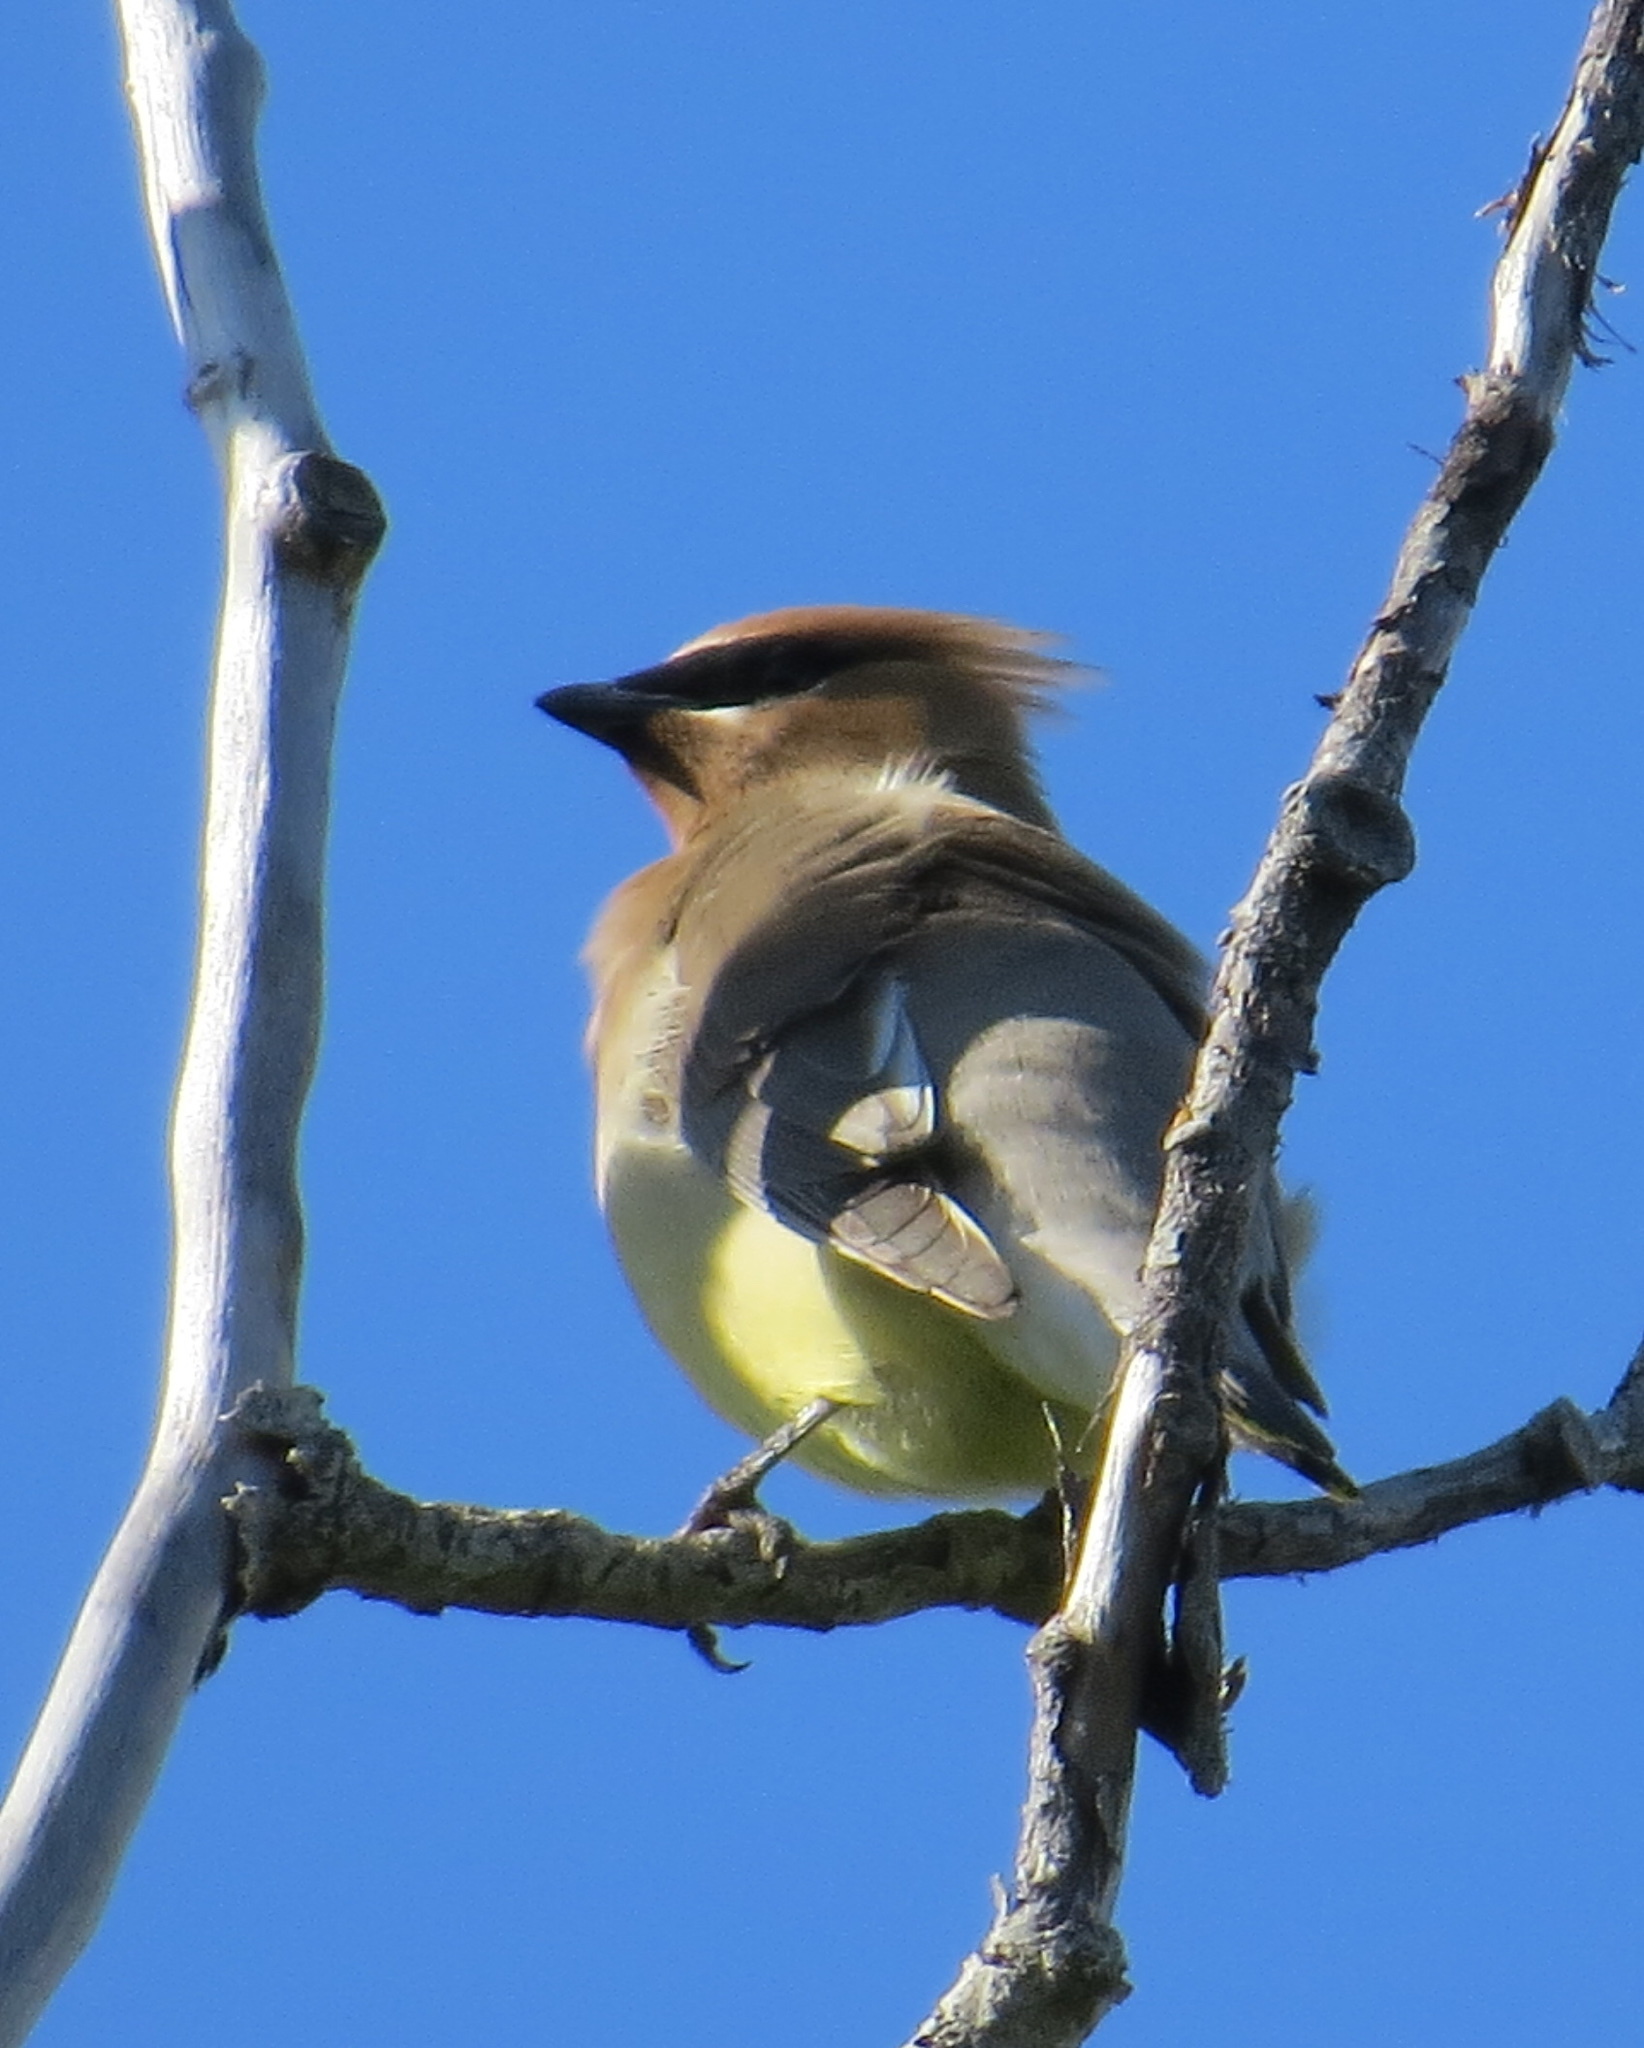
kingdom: Animalia
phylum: Chordata
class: Aves
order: Passeriformes
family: Bombycillidae
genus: Bombycilla
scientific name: Bombycilla cedrorum
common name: Cedar waxwing
